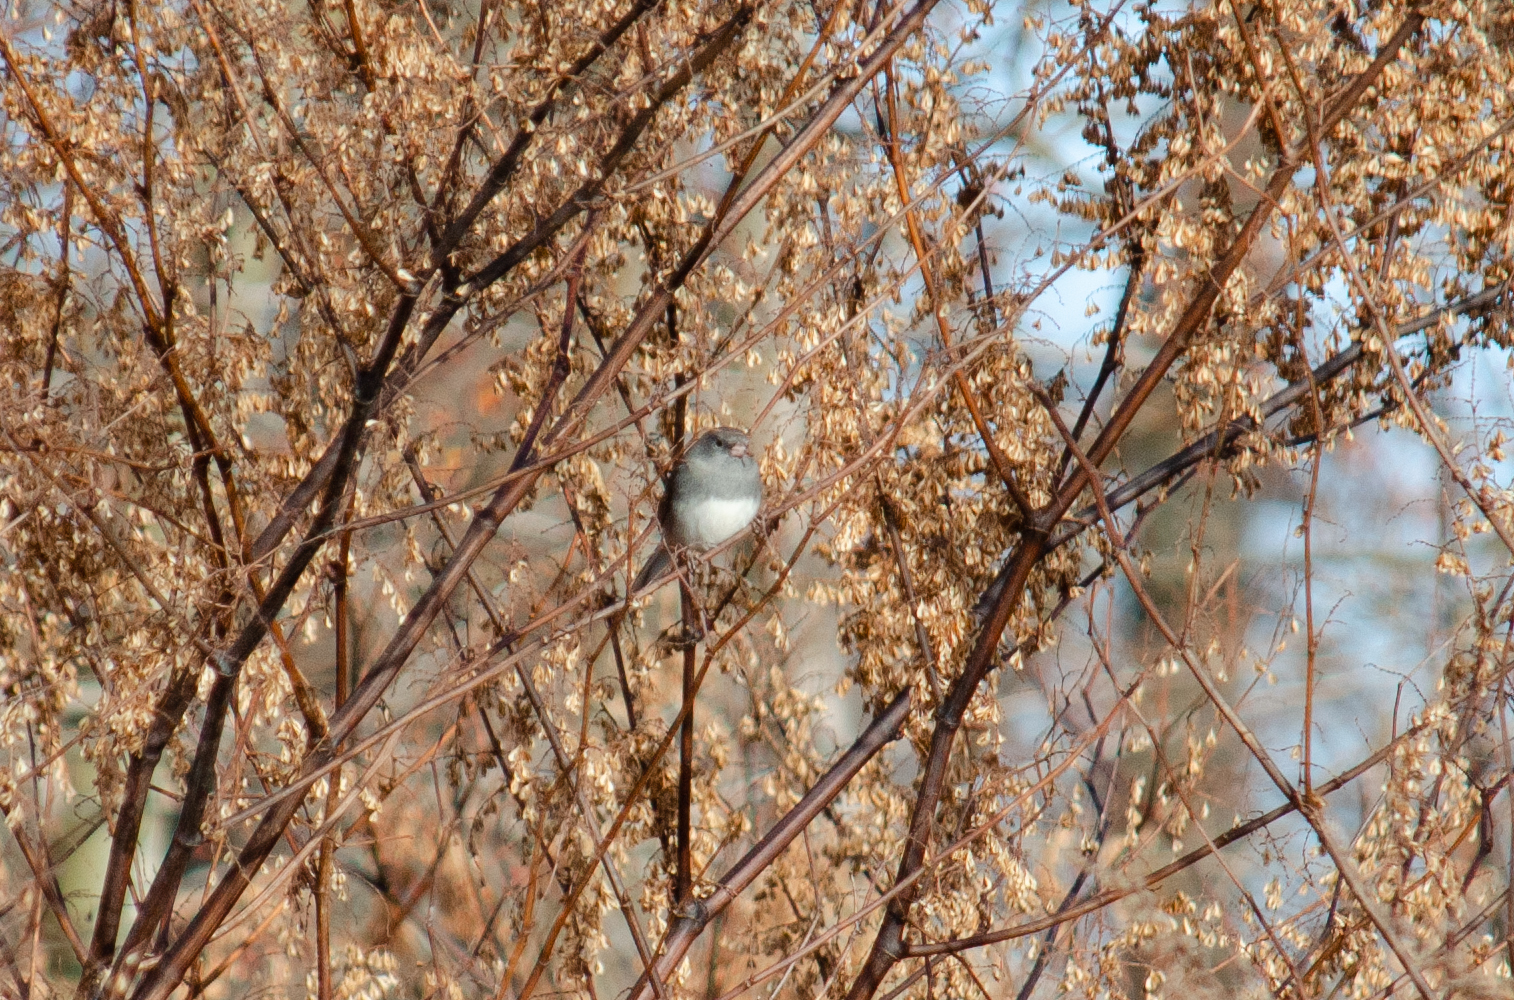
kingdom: Animalia
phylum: Chordata
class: Aves
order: Passeriformes
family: Passerellidae
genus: Junco
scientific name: Junco hyemalis
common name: Dark-eyed junco
